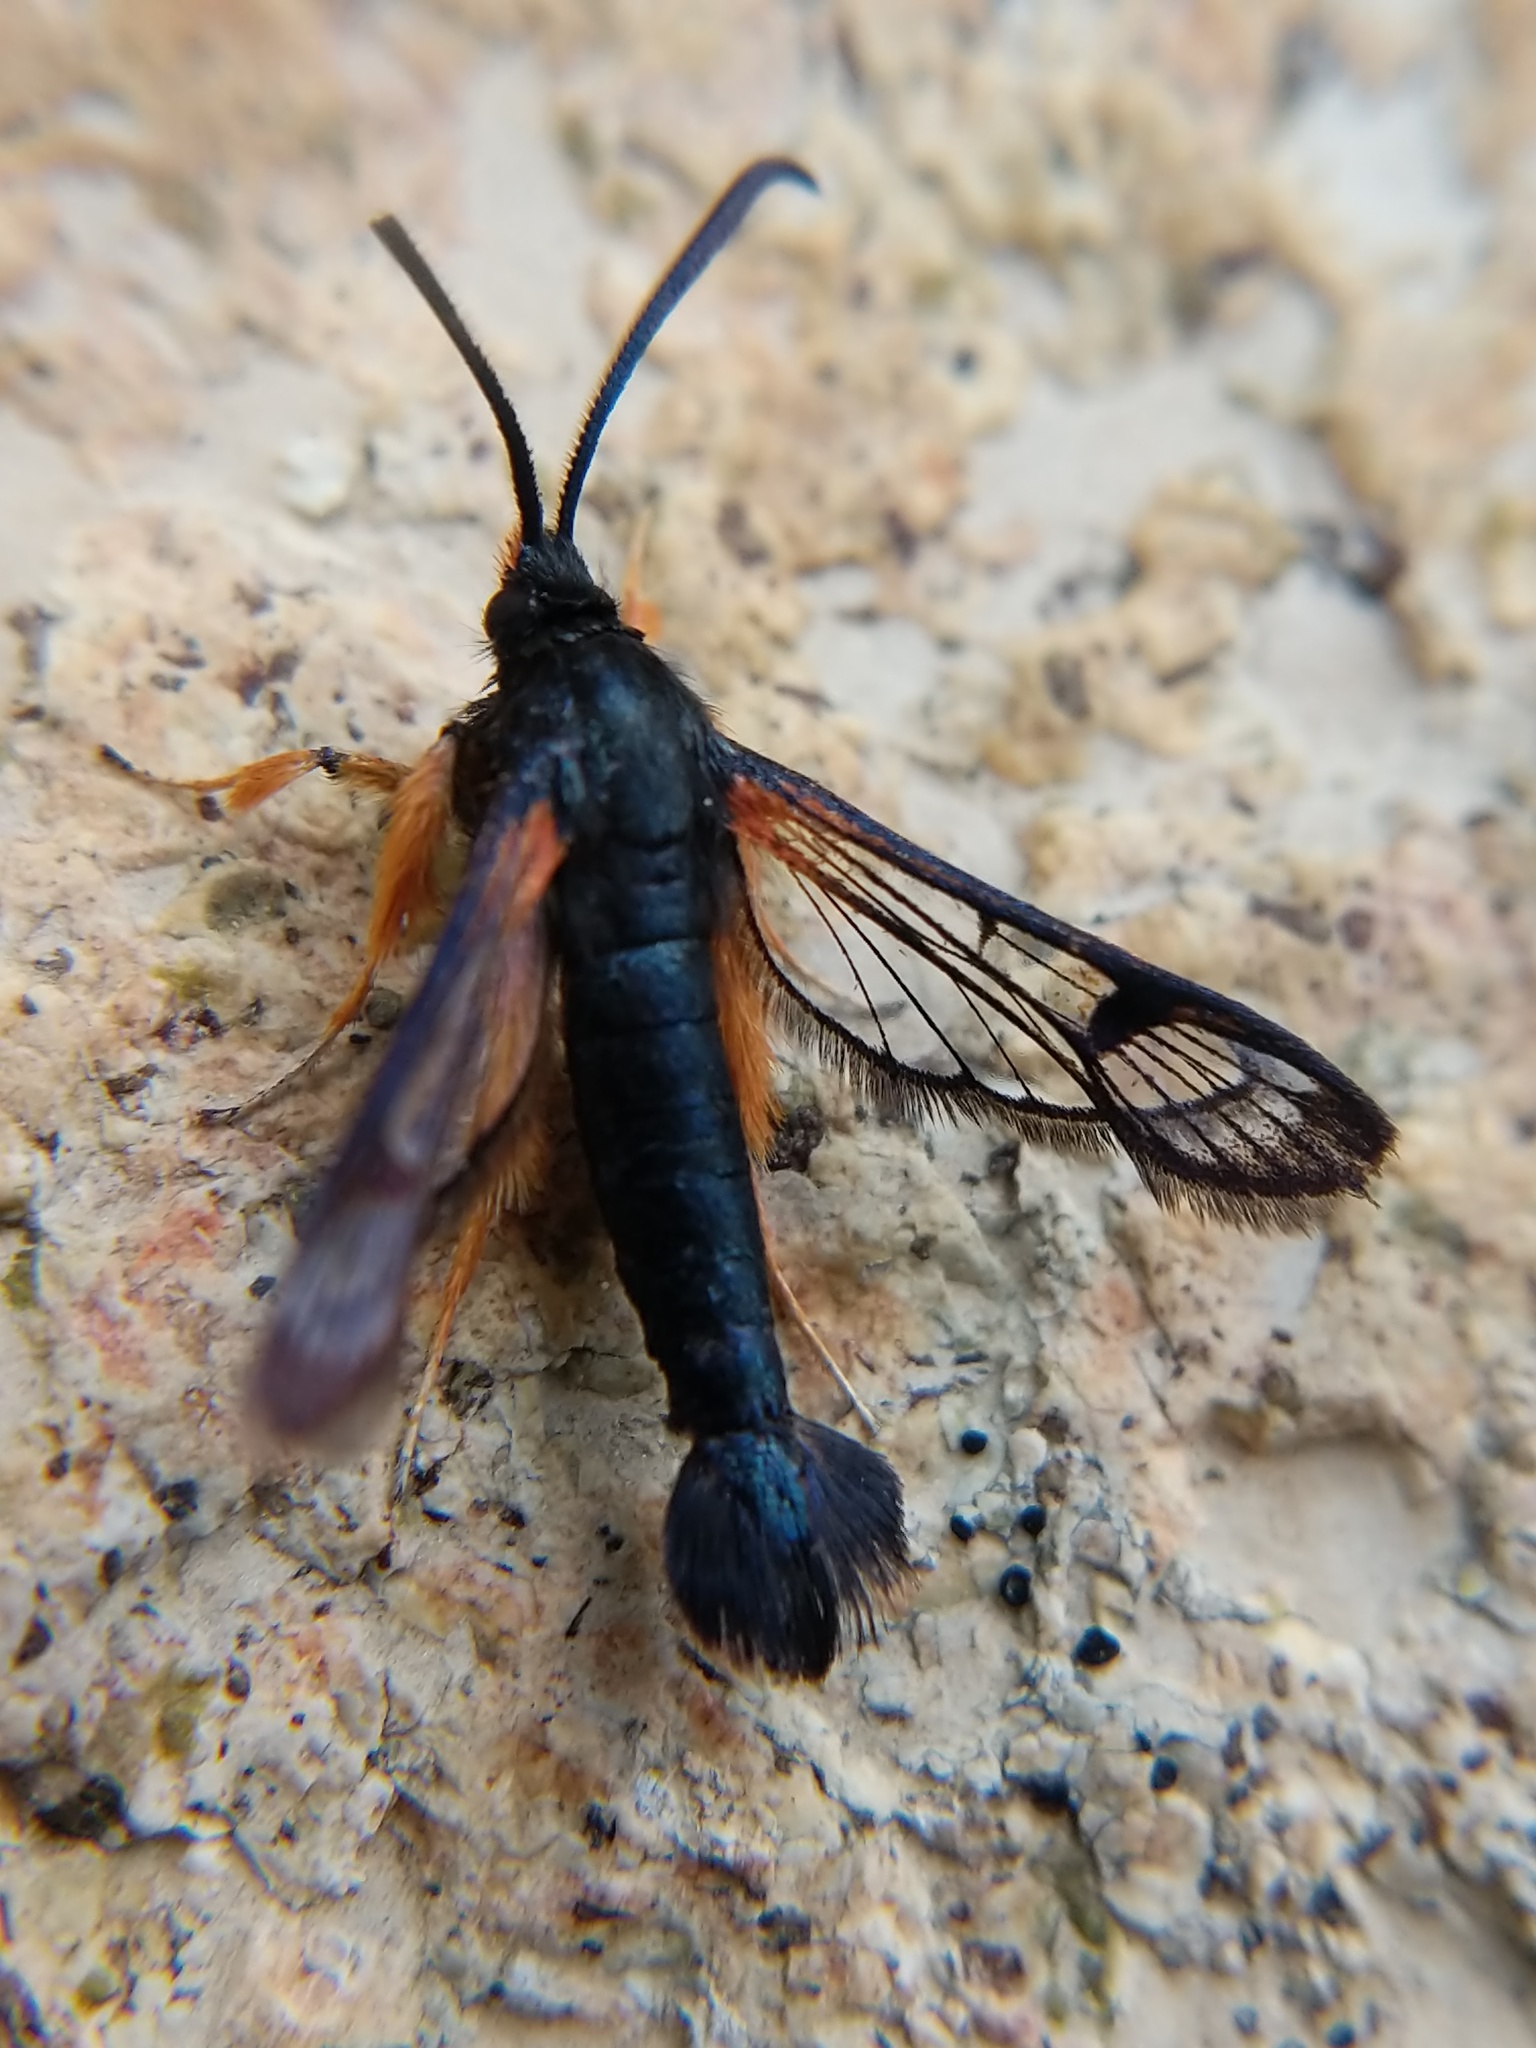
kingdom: Animalia
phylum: Arthropoda
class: Insecta
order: Lepidoptera
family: Sesiidae
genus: Synanthedon
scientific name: Synanthedon saxifragae
